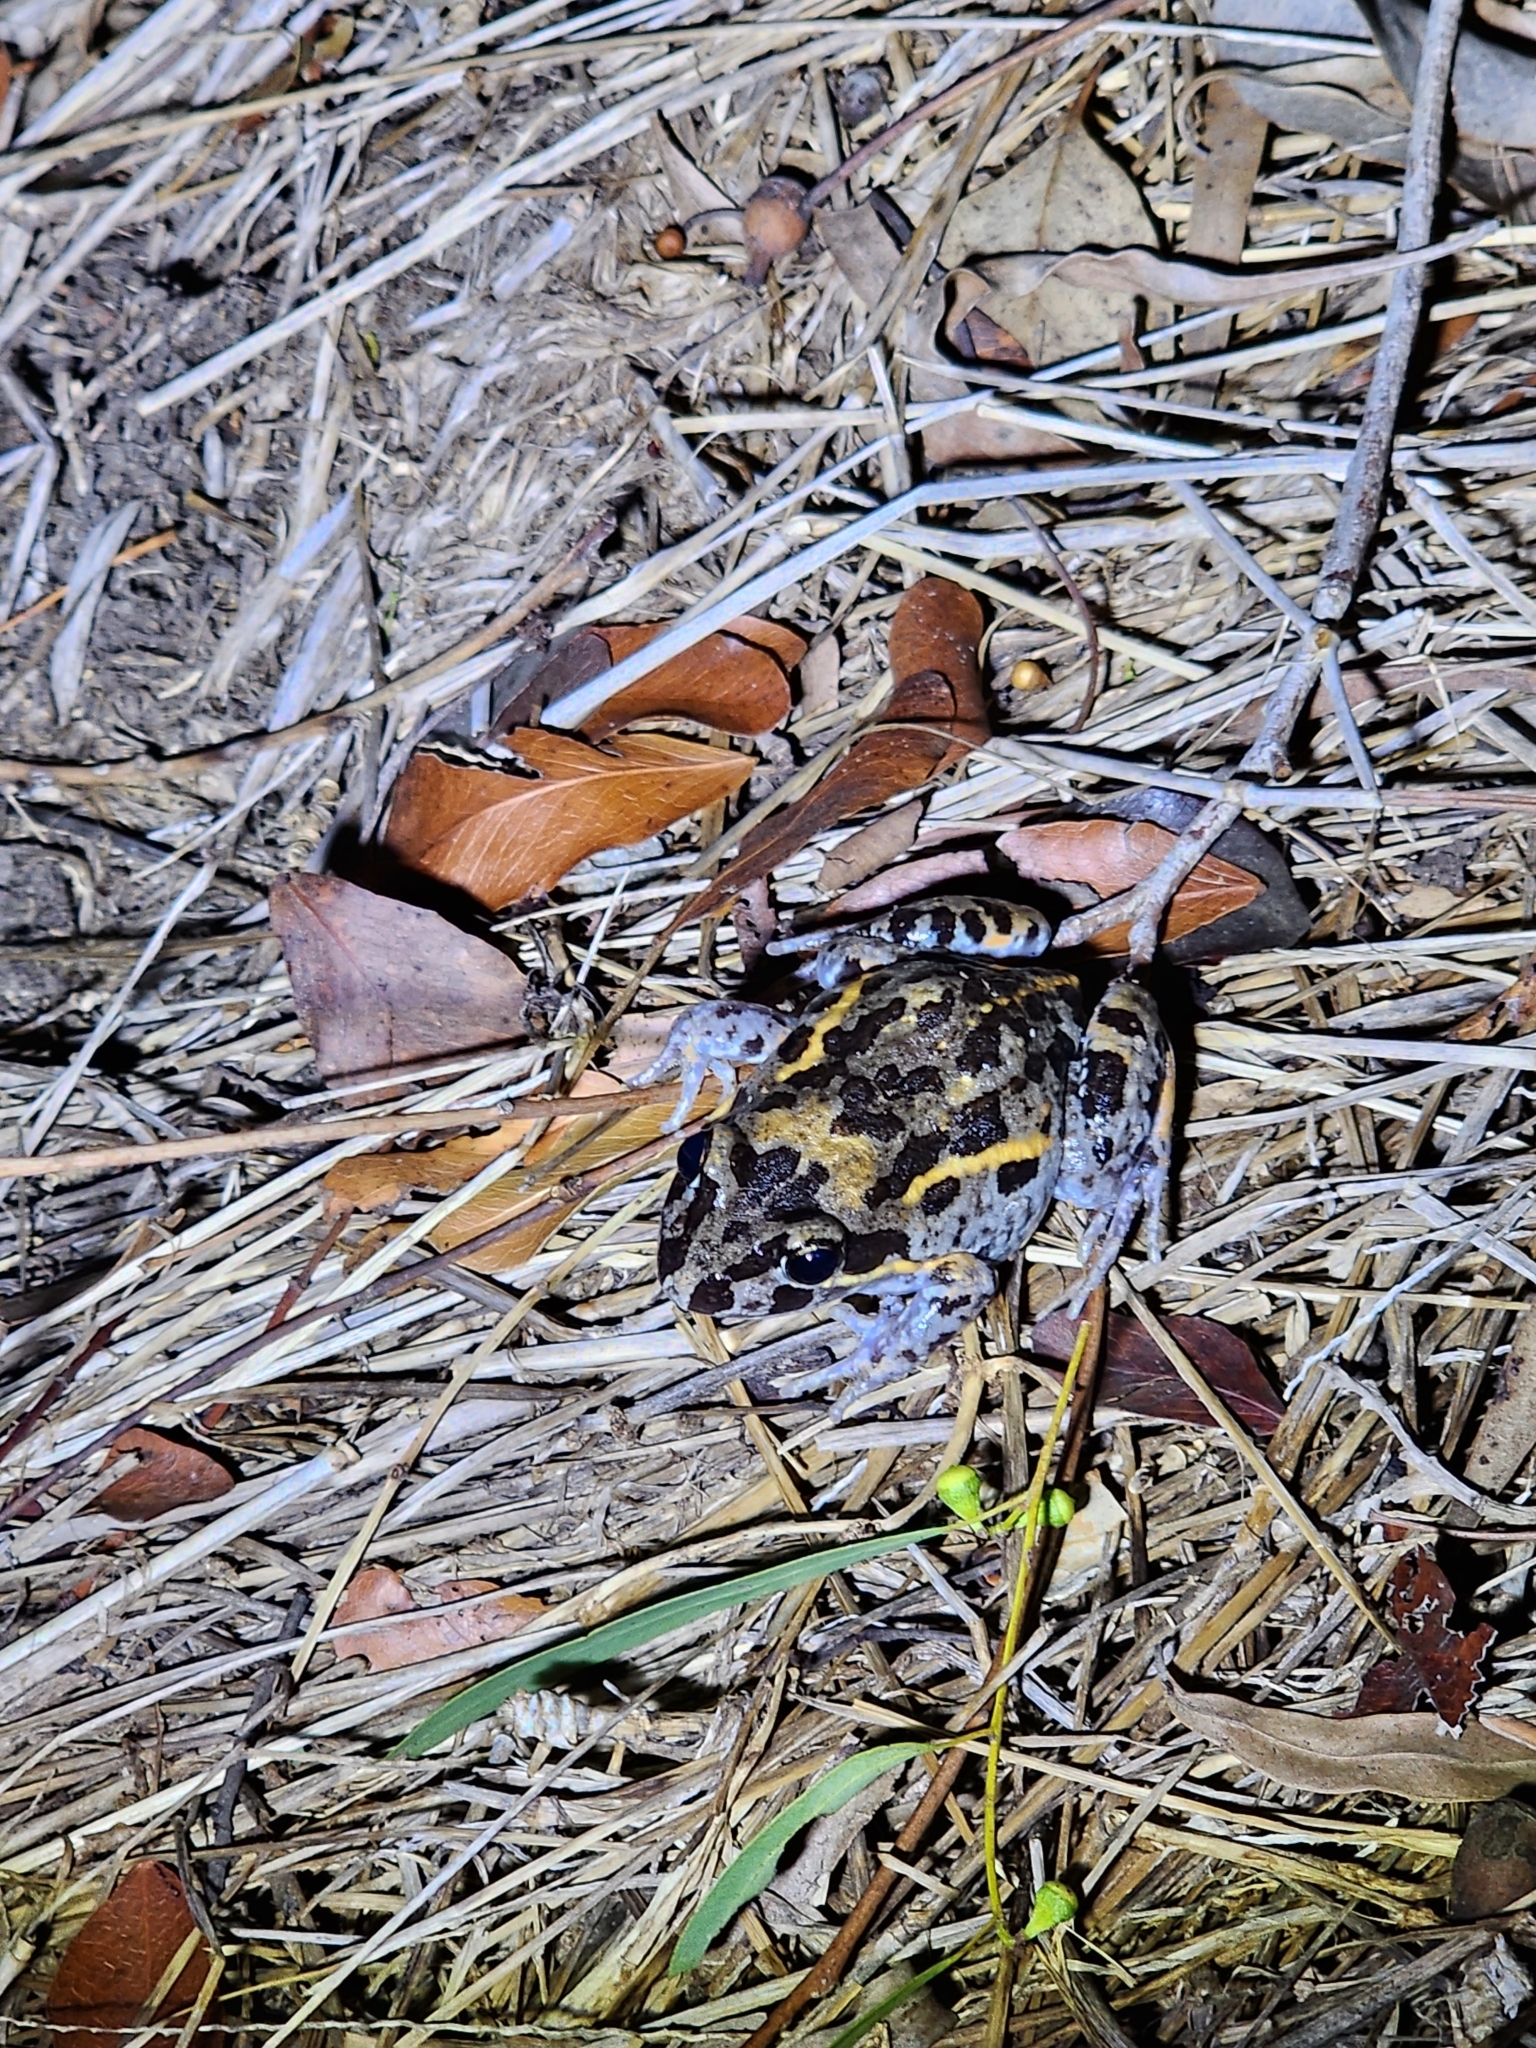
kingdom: Animalia
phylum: Chordata
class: Amphibia
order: Anura
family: Limnodynastidae
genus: Limnodynastes
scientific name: Limnodynastes salmini
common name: Salmon-striped frog
